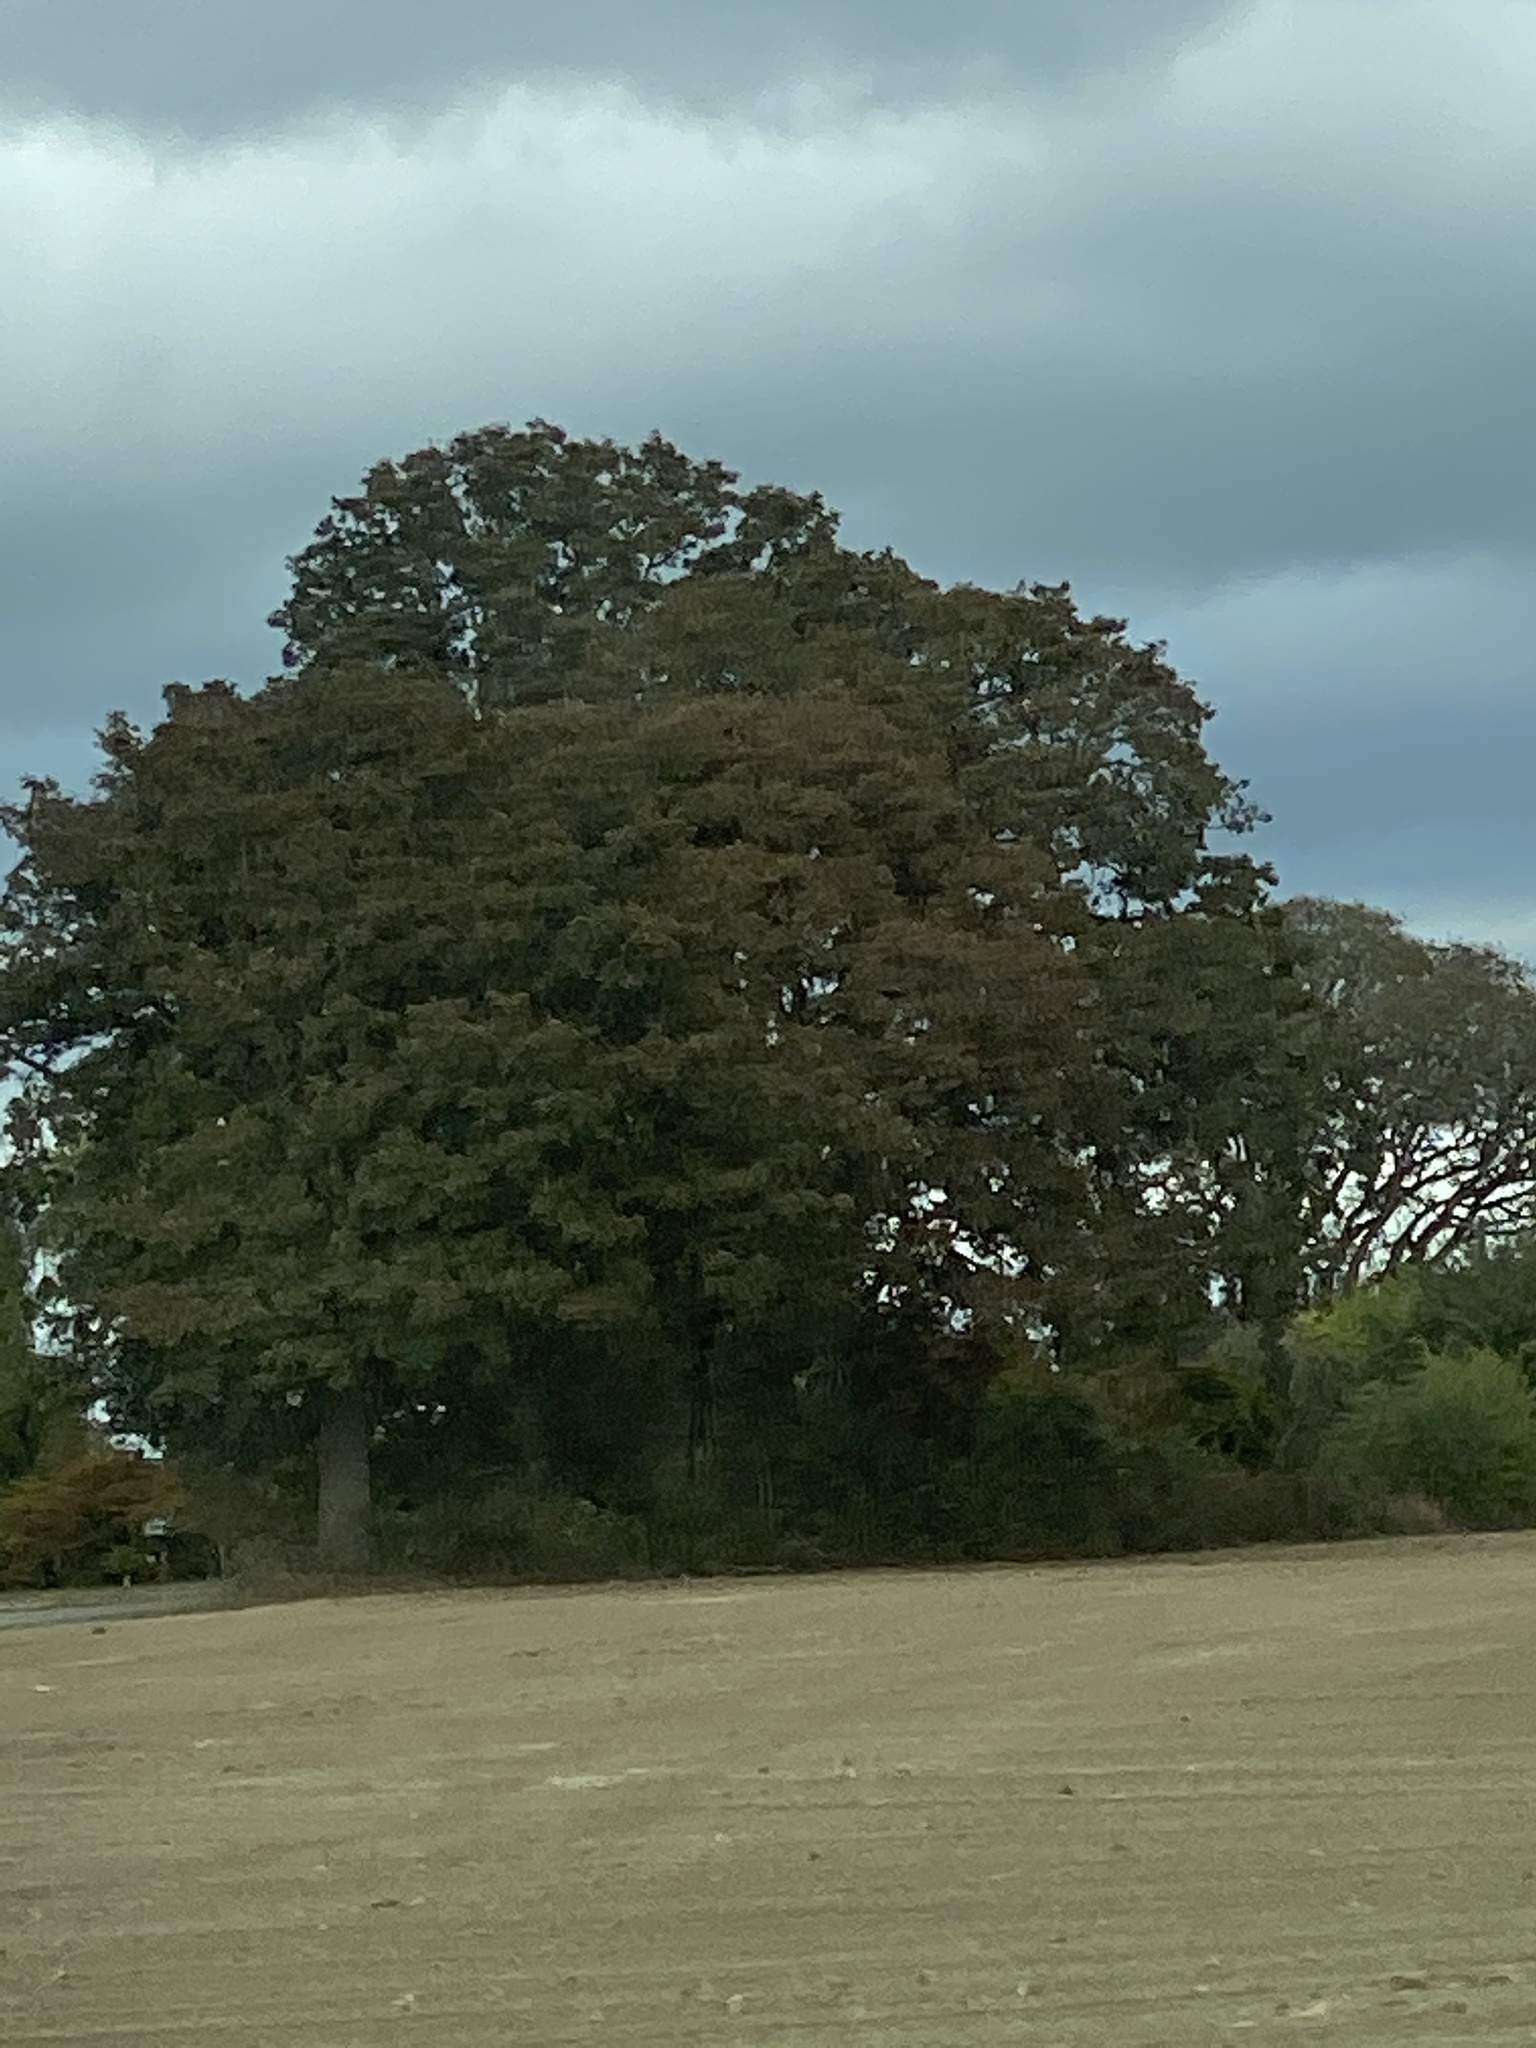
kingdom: Plantae
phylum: Tracheophyta
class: Magnoliopsida
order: Fagales
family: Fagaceae
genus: Quercus
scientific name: Quercus garryana
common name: Garry oak
